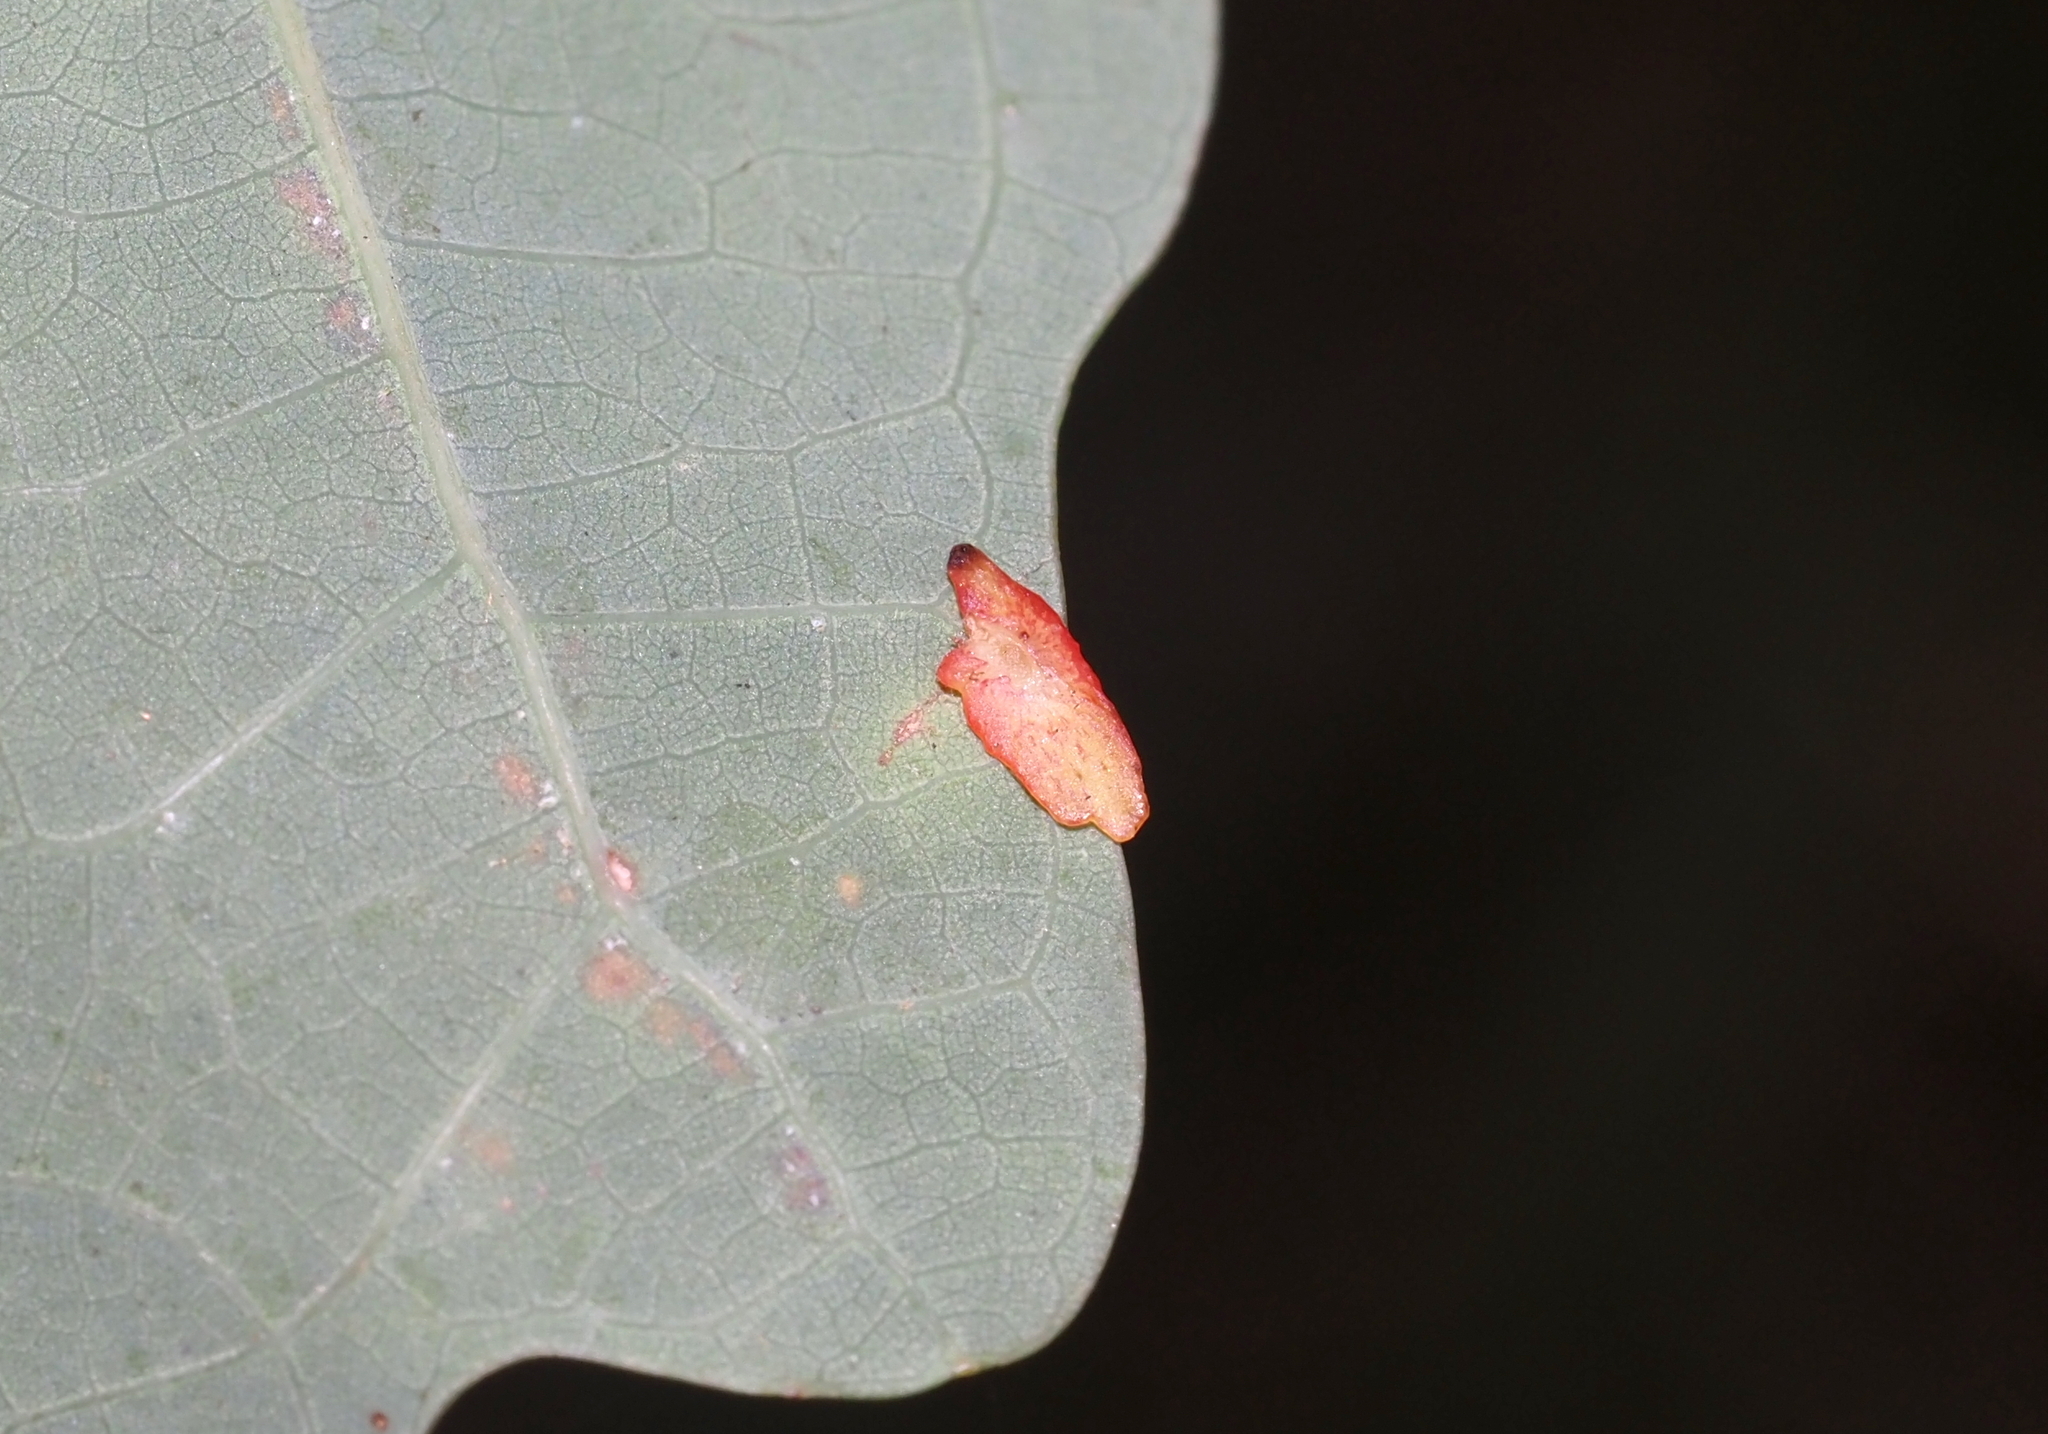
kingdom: Animalia
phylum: Arthropoda
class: Insecta
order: Hymenoptera
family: Cynipidae
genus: Phylloteras
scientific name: Phylloteras
